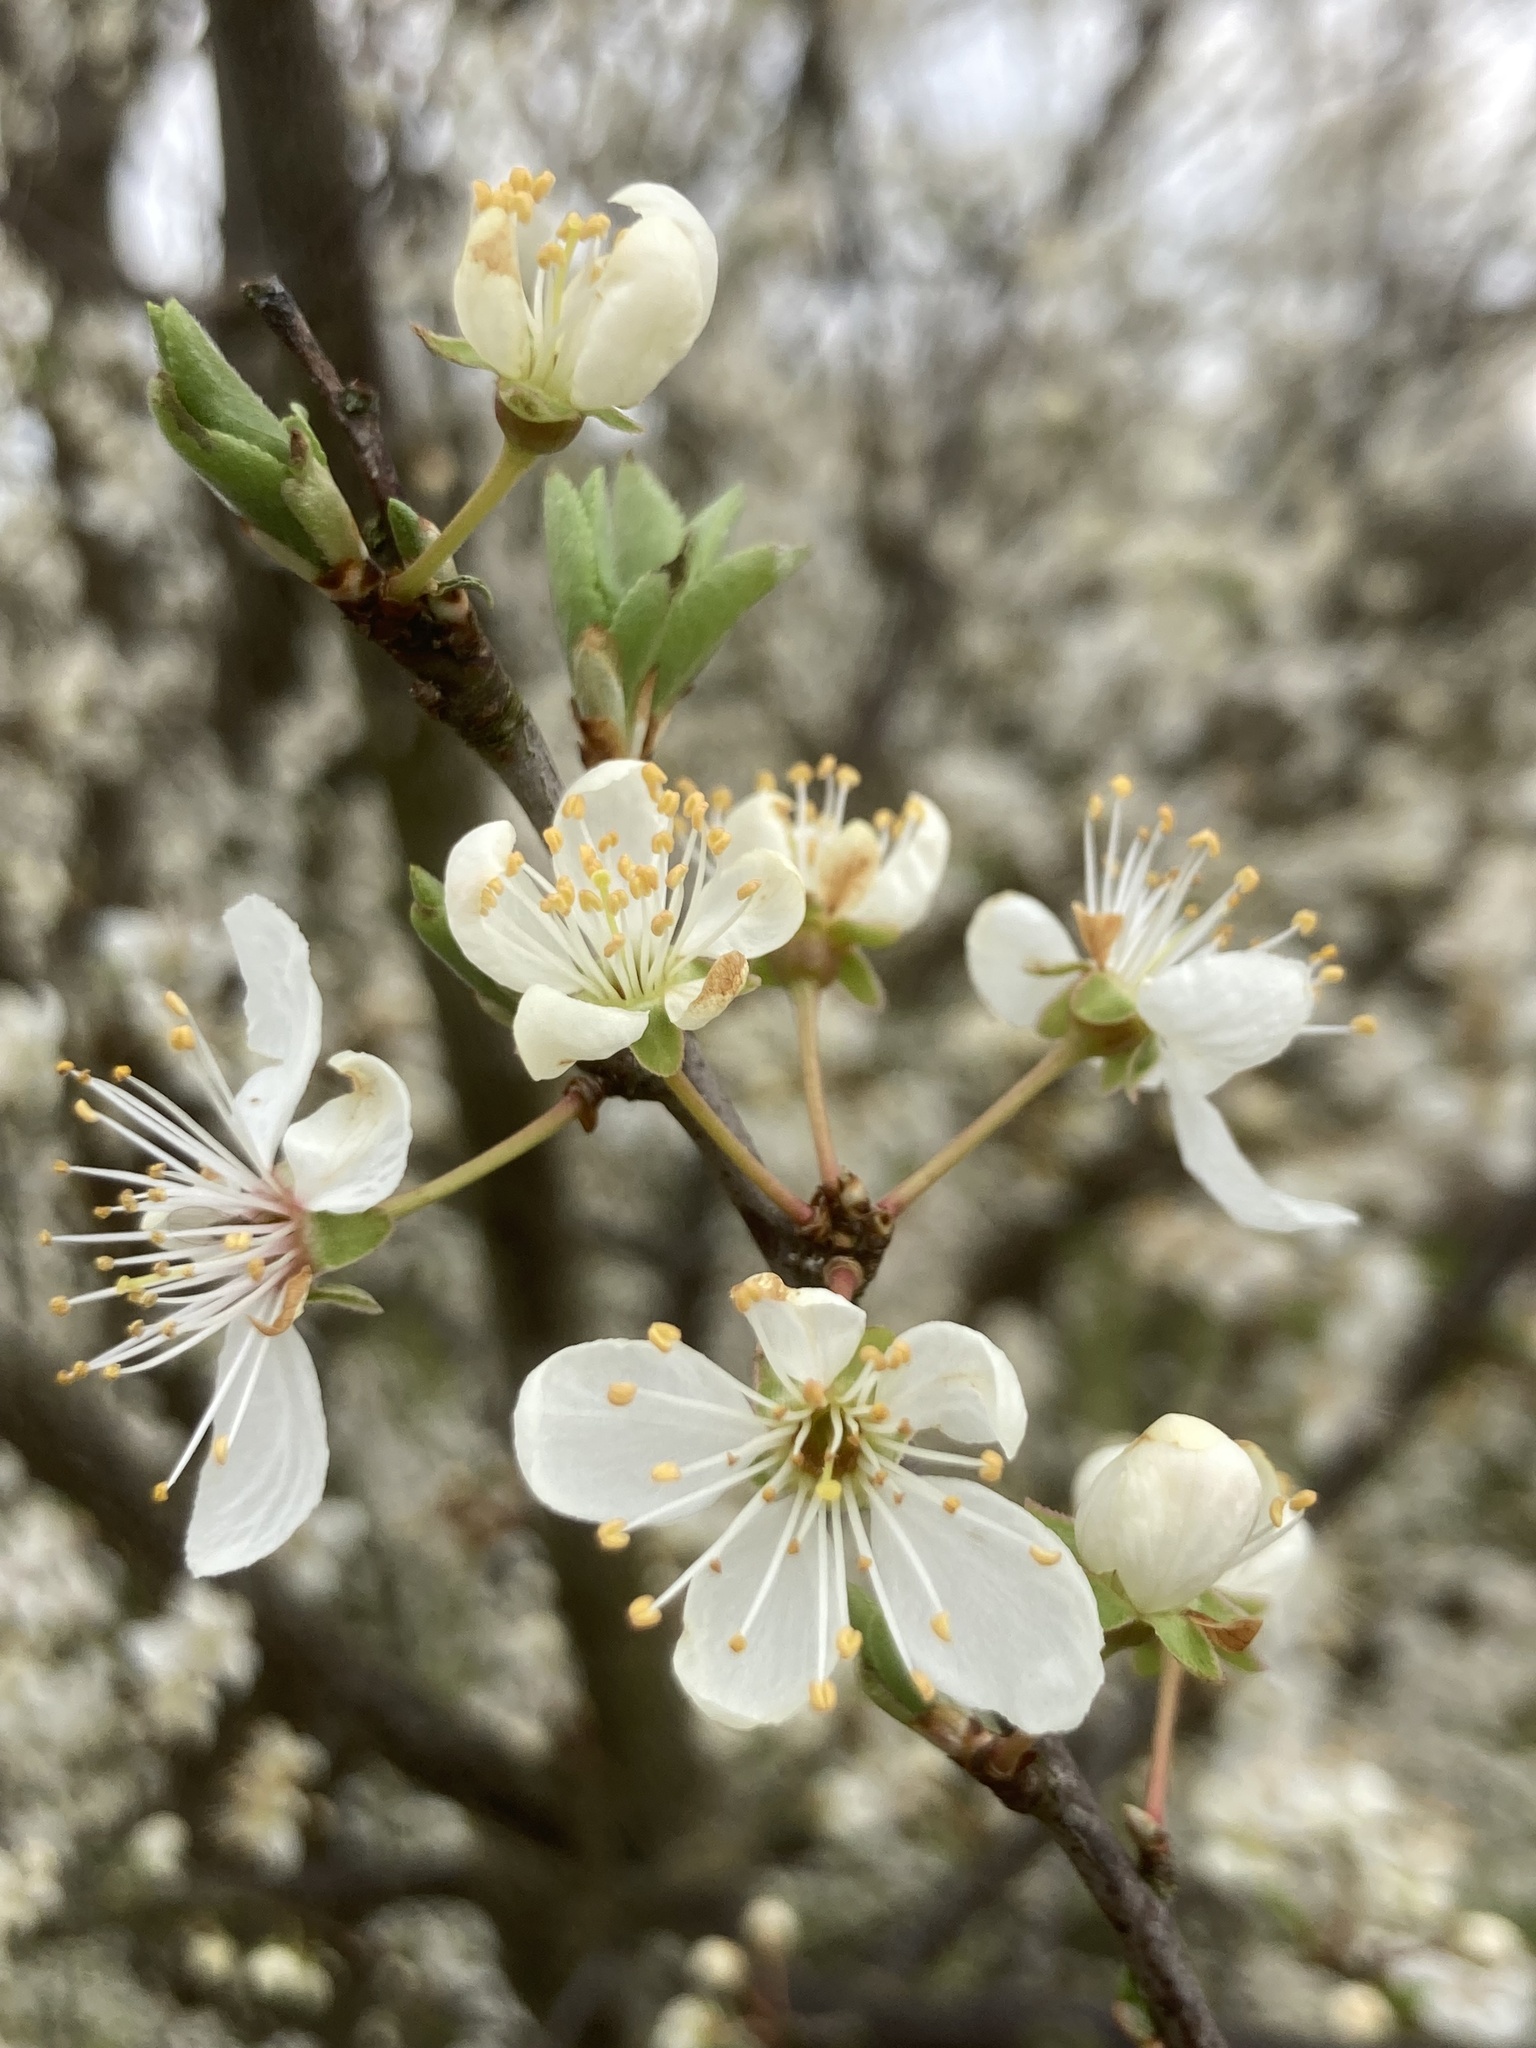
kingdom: Plantae
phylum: Tracheophyta
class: Magnoliopsida
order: Rosales
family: Rosaceae
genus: Prunus
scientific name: Prunus cerasifera
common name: Cherry plum
